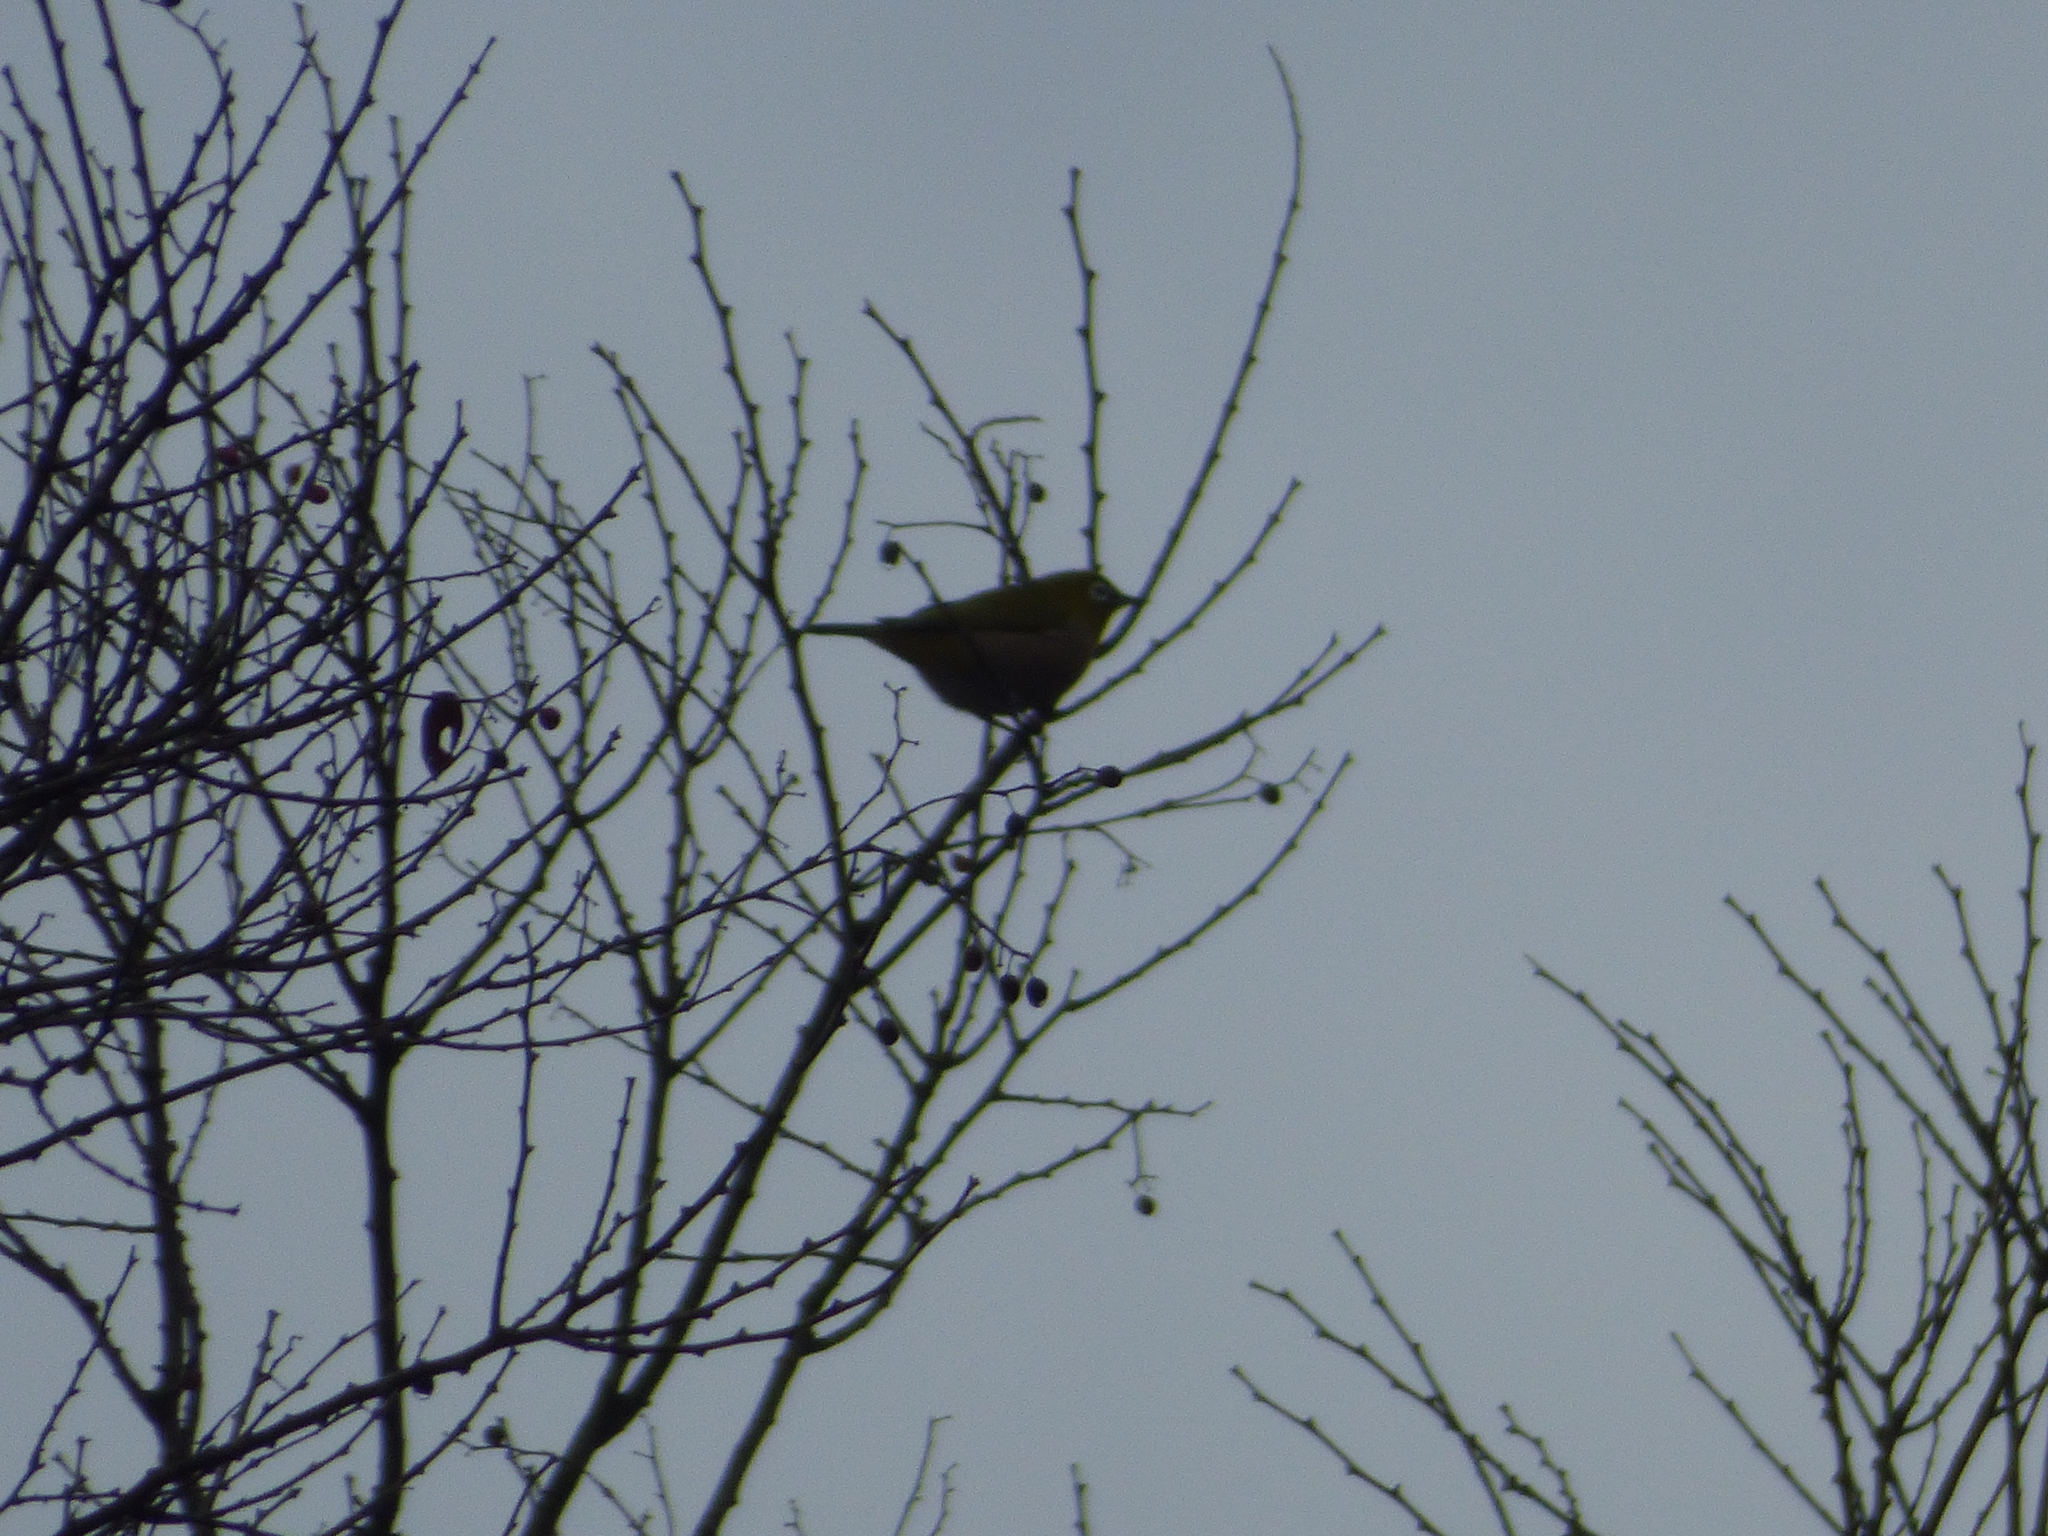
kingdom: Animalia
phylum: Chordata
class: Aves
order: Passeriformes
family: Zosteropidae
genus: Zosterops
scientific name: Zosterops japonicus
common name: Japanese white-eye
